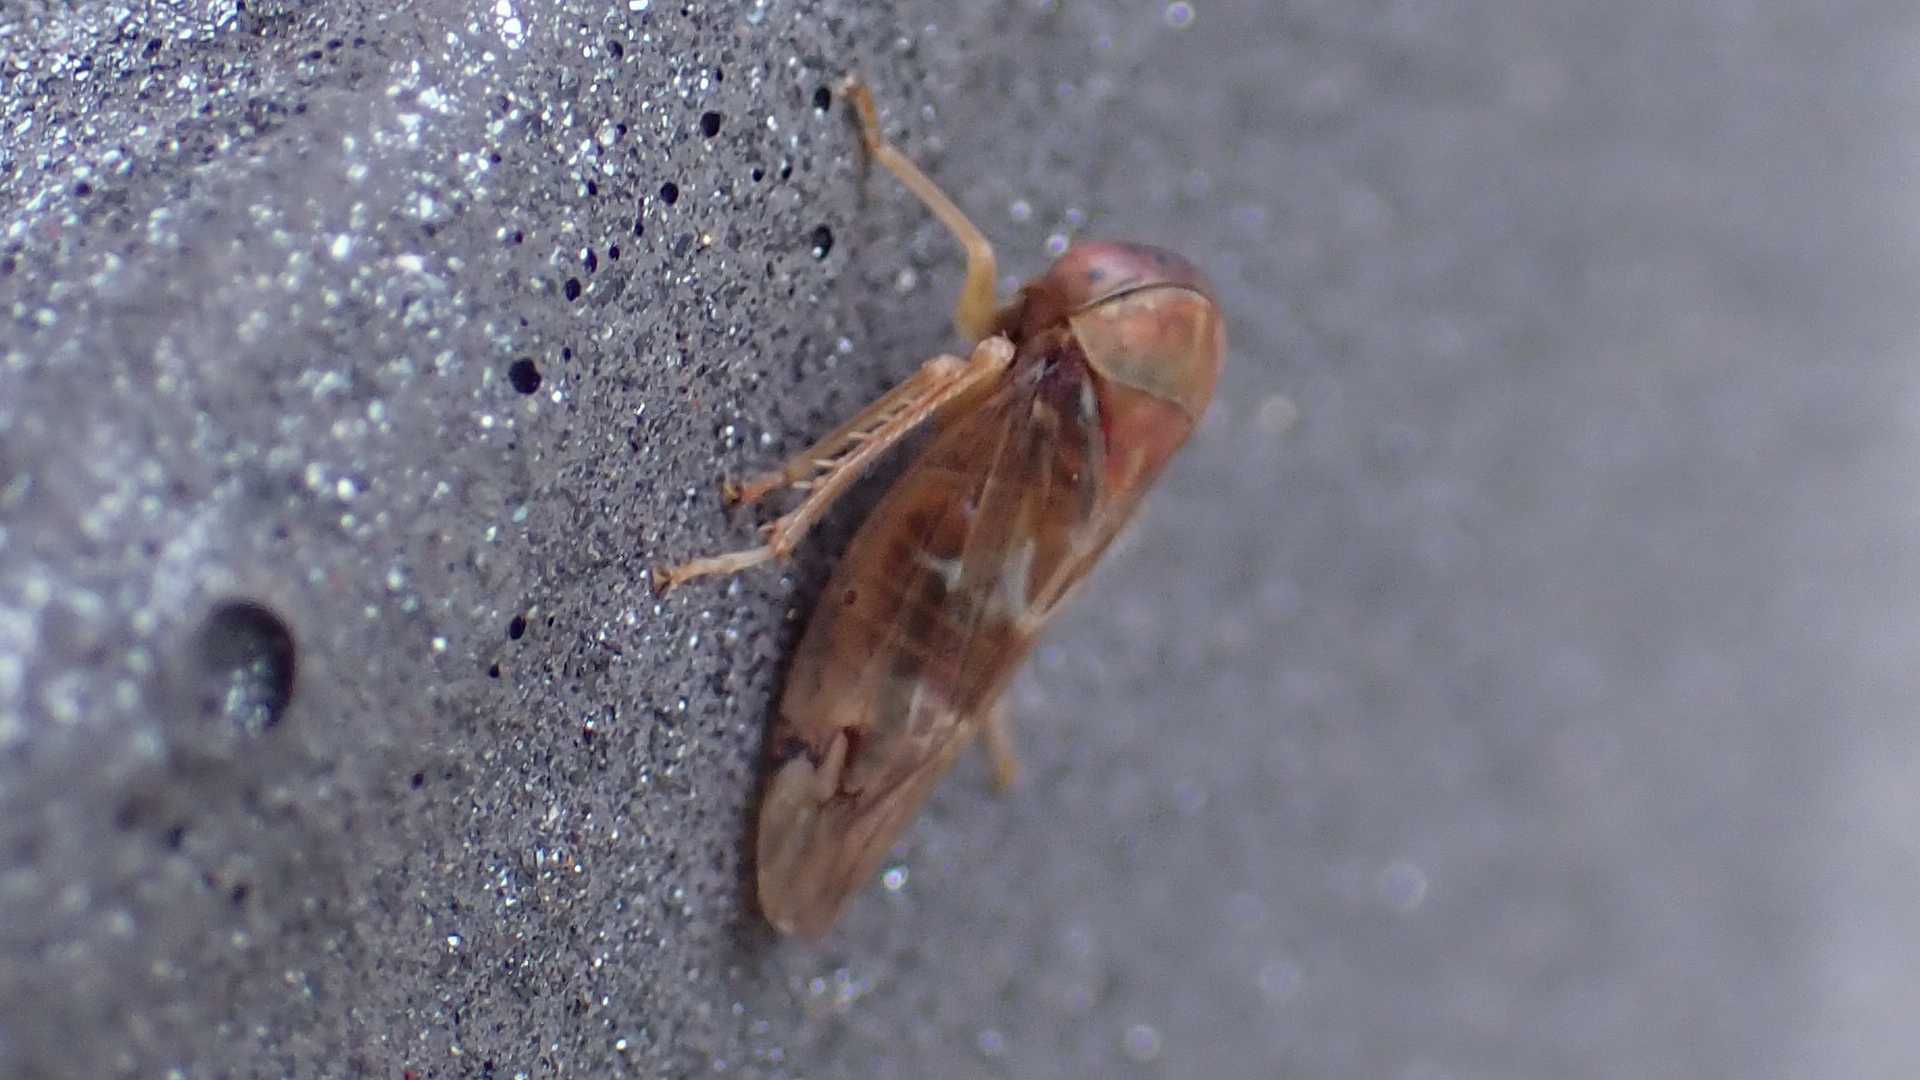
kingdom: Animalia
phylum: Arthropoda
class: Insecta
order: Hemiptera
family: Cicadellidae
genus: Tremulicerus
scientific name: Tremulicerus fulgidus
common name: Leafhopper
